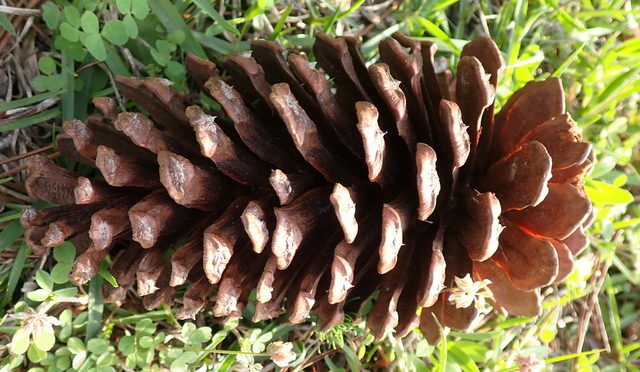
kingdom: Plantae
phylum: Tracheophyta
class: Pinopsida
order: Pinales
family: Pinaceae
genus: Pinus
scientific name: Pinus palustris
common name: Longleaf pine
